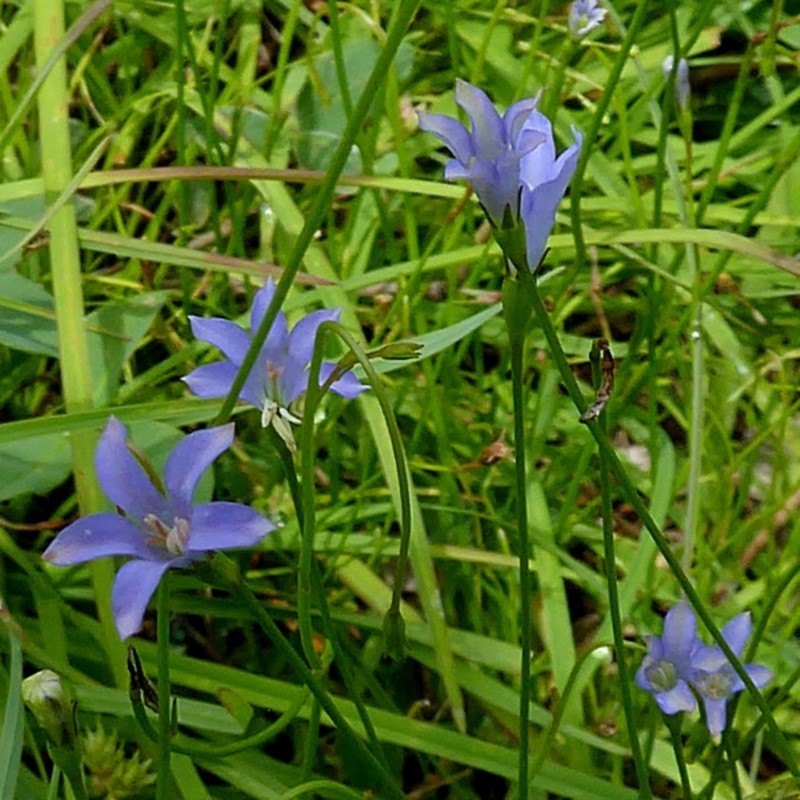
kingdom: Plantae
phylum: Tracheophyta
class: Magnoliopsida
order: Asterales
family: Campanulaceae
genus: Wahlenbergia
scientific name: Wahlenbergia capillaris
